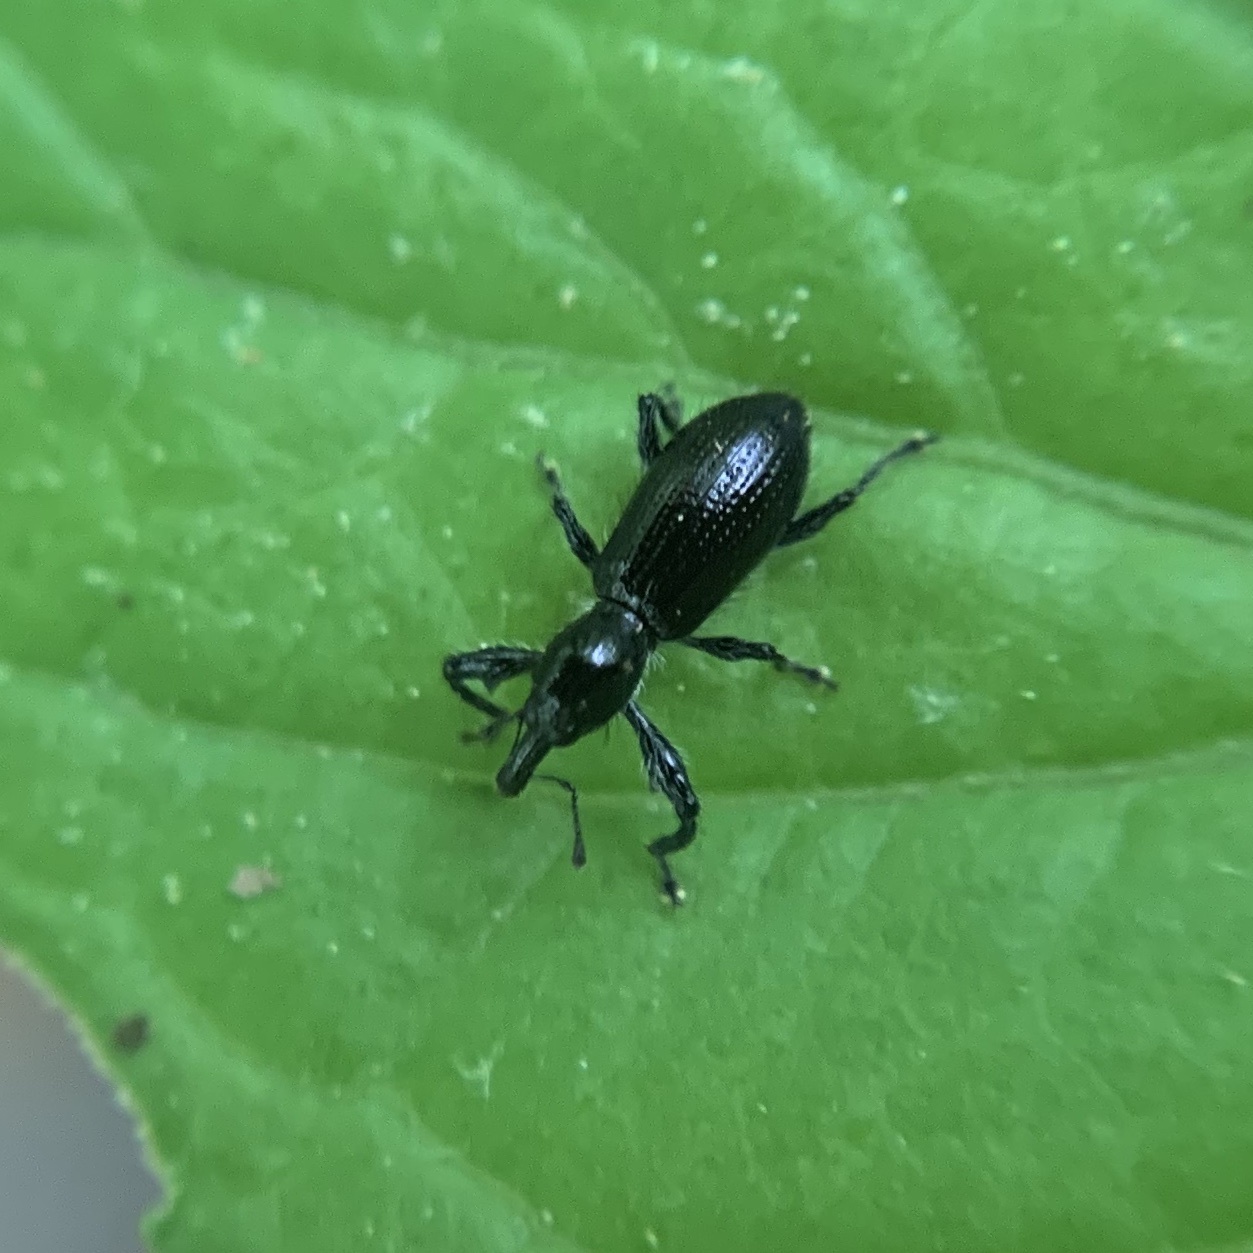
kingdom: Animalia
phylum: Arthropoda
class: Insecta
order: Coleoptera
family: Curculionidae
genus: Myrmex
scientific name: Myrmex myrmex
